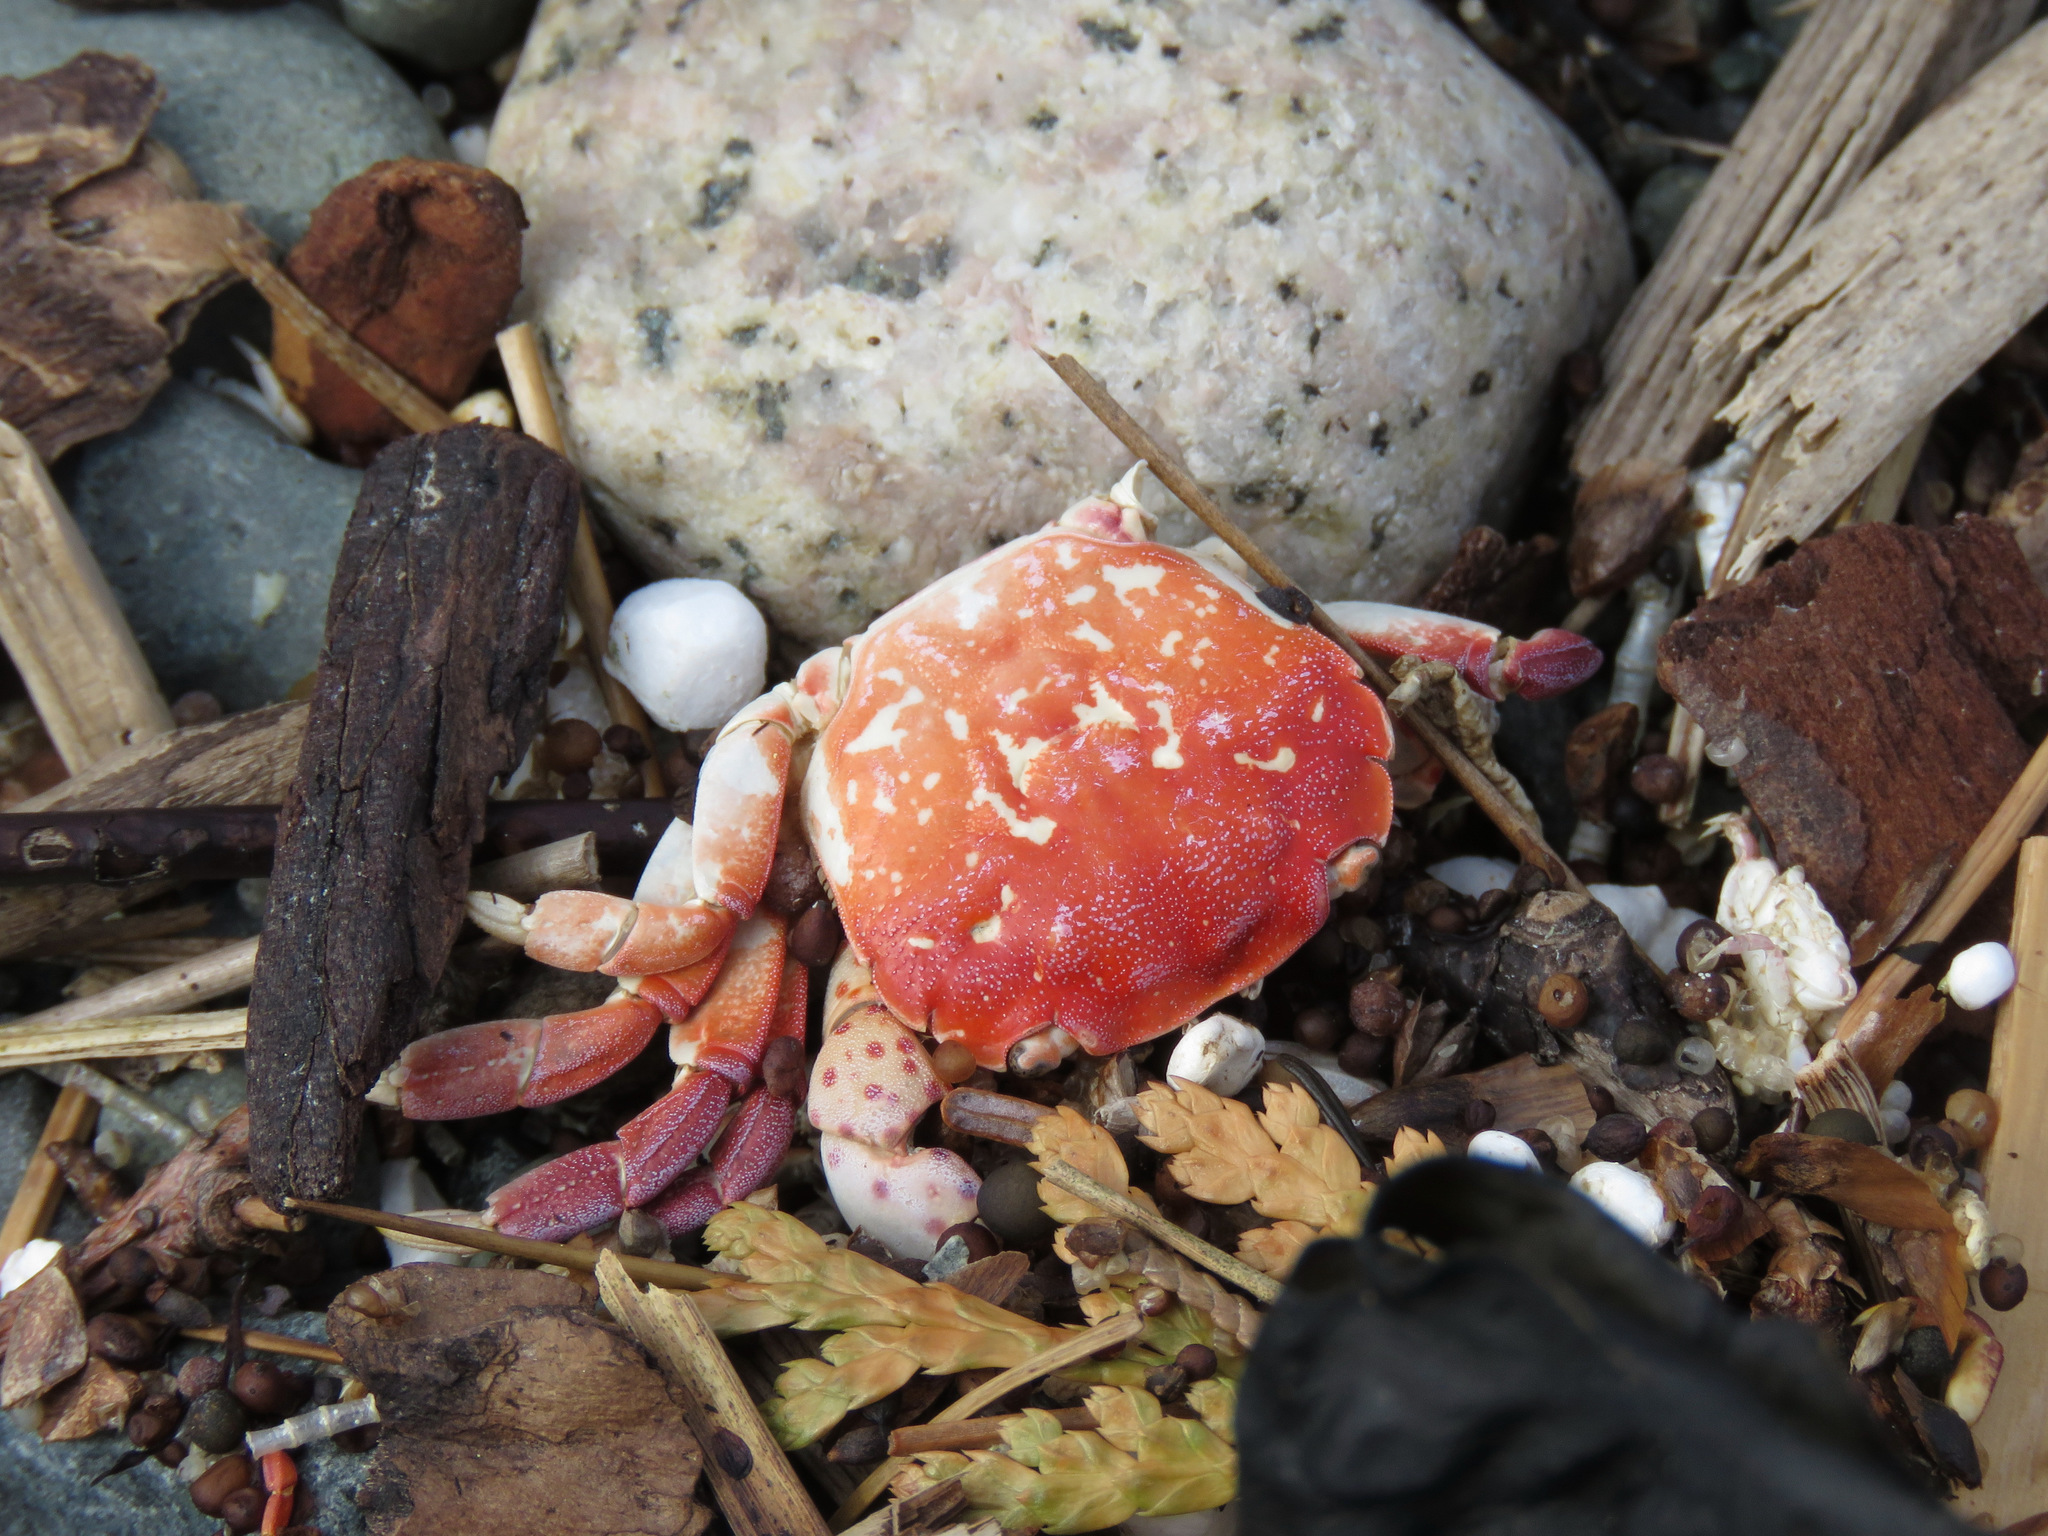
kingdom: Animalia
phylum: Arthropoda
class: Malacostraca
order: Decapoda
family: Varunidae
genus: Hemigrapsus
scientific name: Hemigrapsus nudus
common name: Purple shore crab
